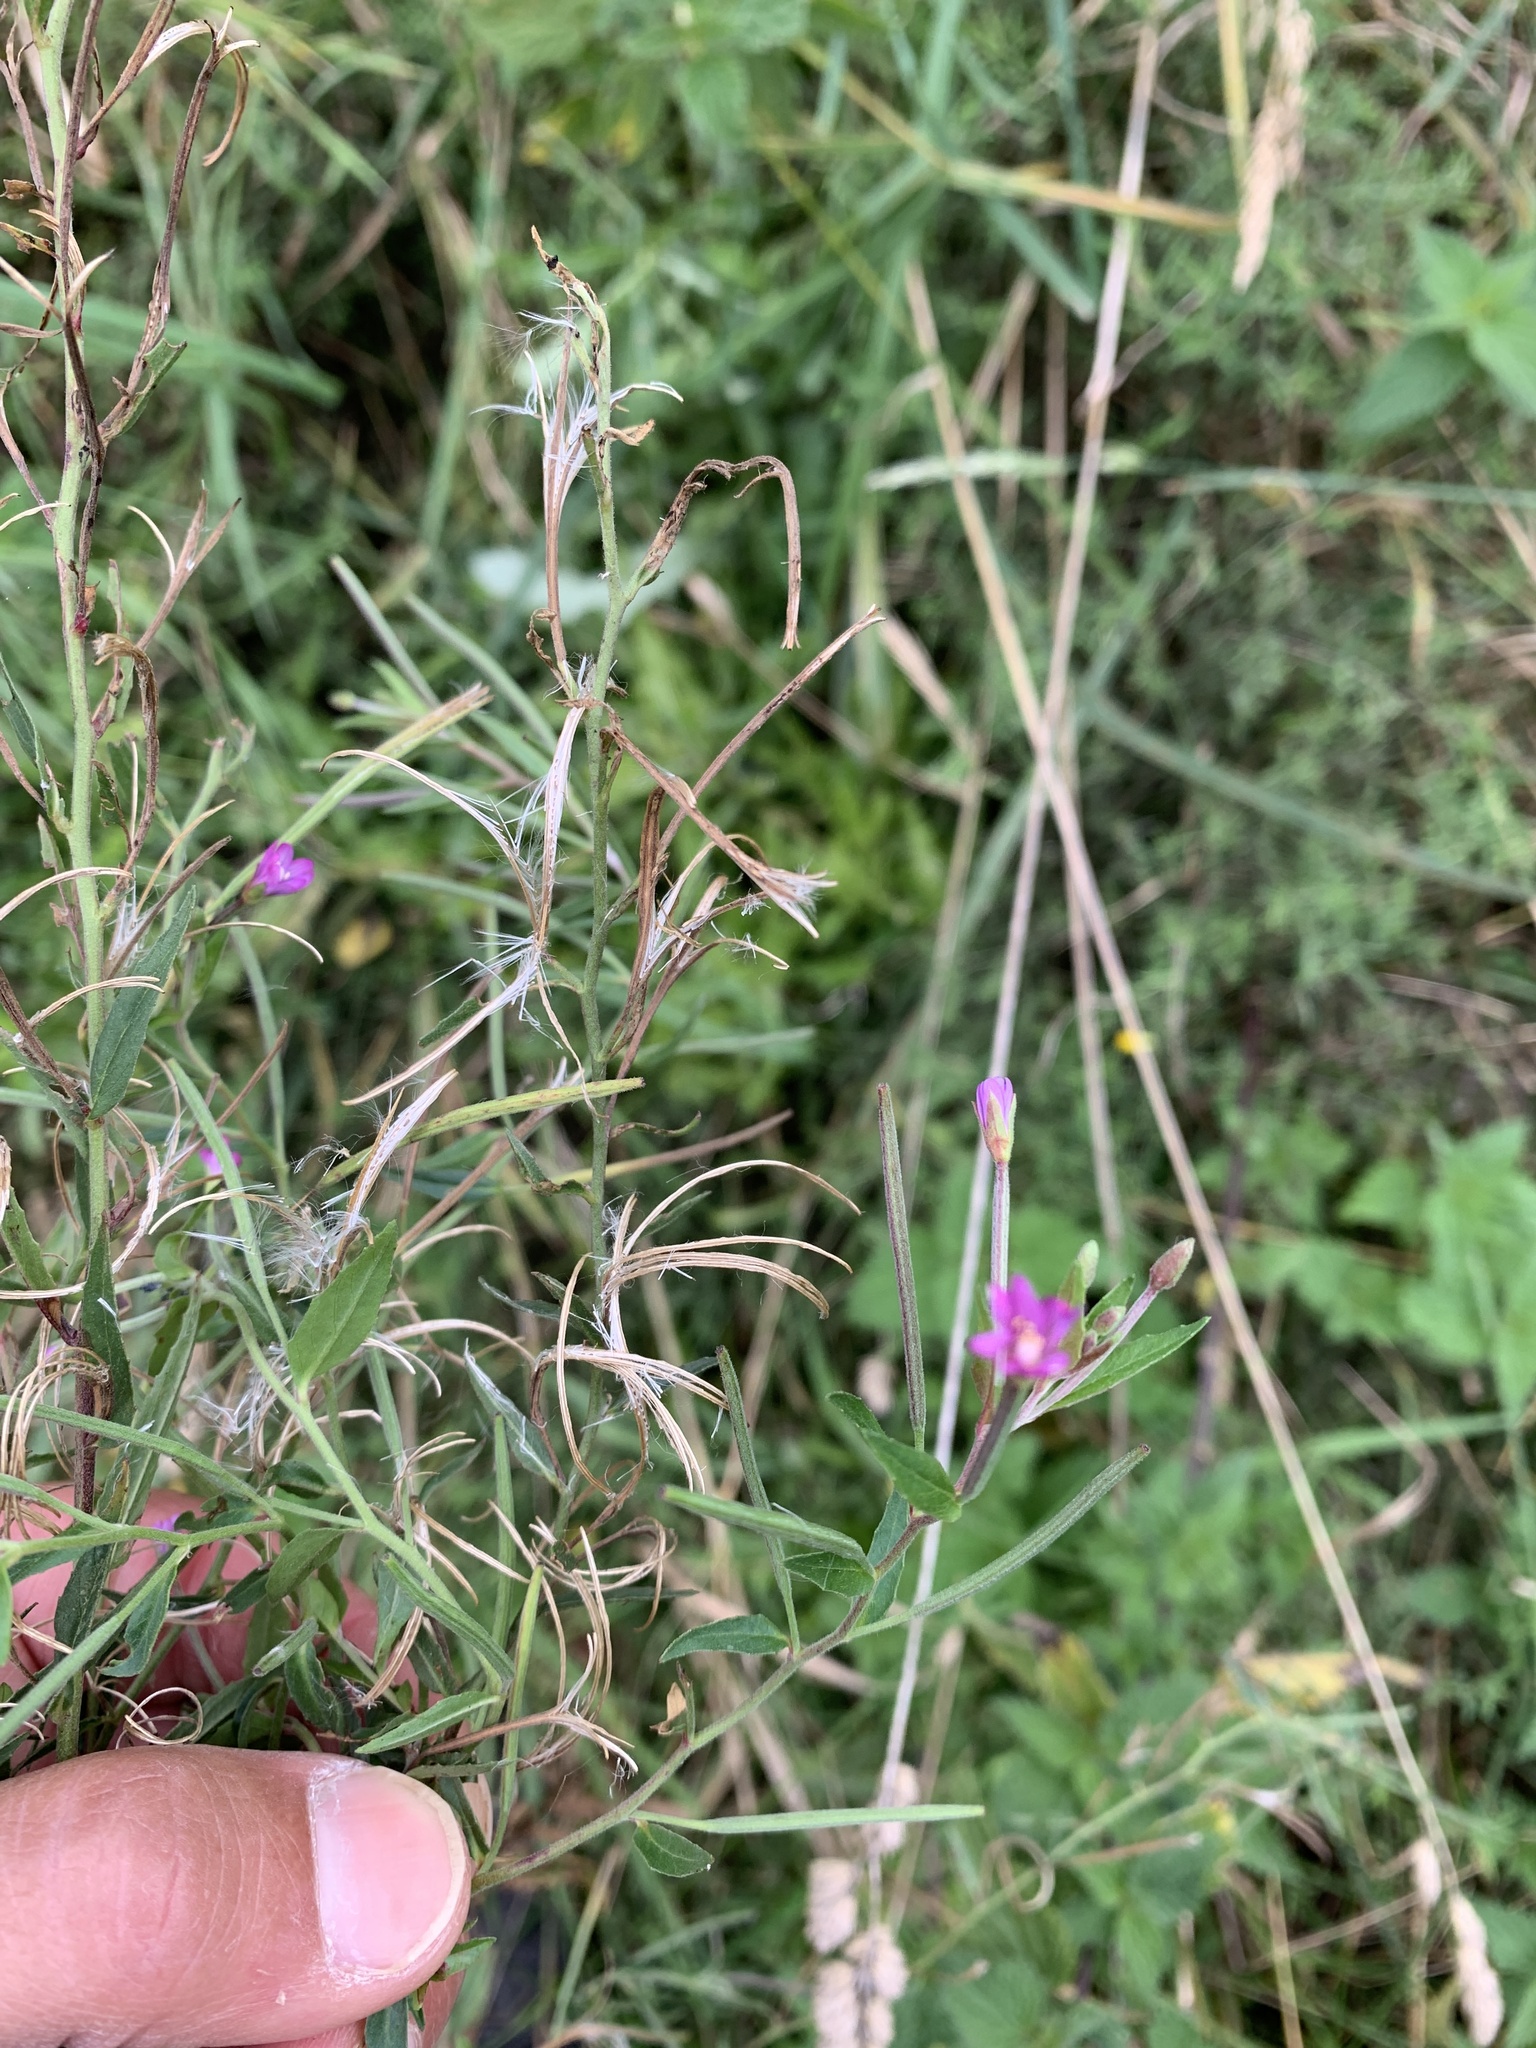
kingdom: Plantae
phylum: Tracheophyta
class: Magnoliopsida
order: Myrtales
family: Onagraceae
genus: Epilobium
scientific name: Epilobium hirsutum
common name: Great willowherb
